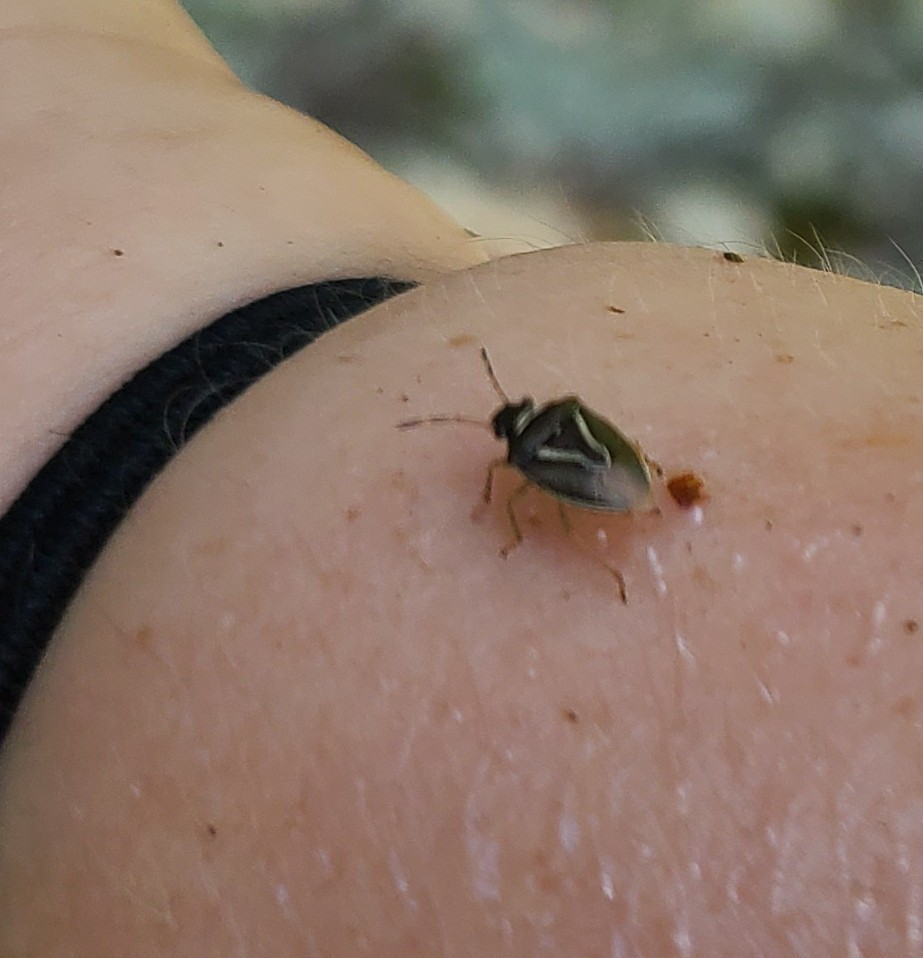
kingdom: Animalia
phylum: Arthropoda
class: Insecta
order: Hemiptera
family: Pentatomidae
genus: Mormidea
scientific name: Mormidea lugens
